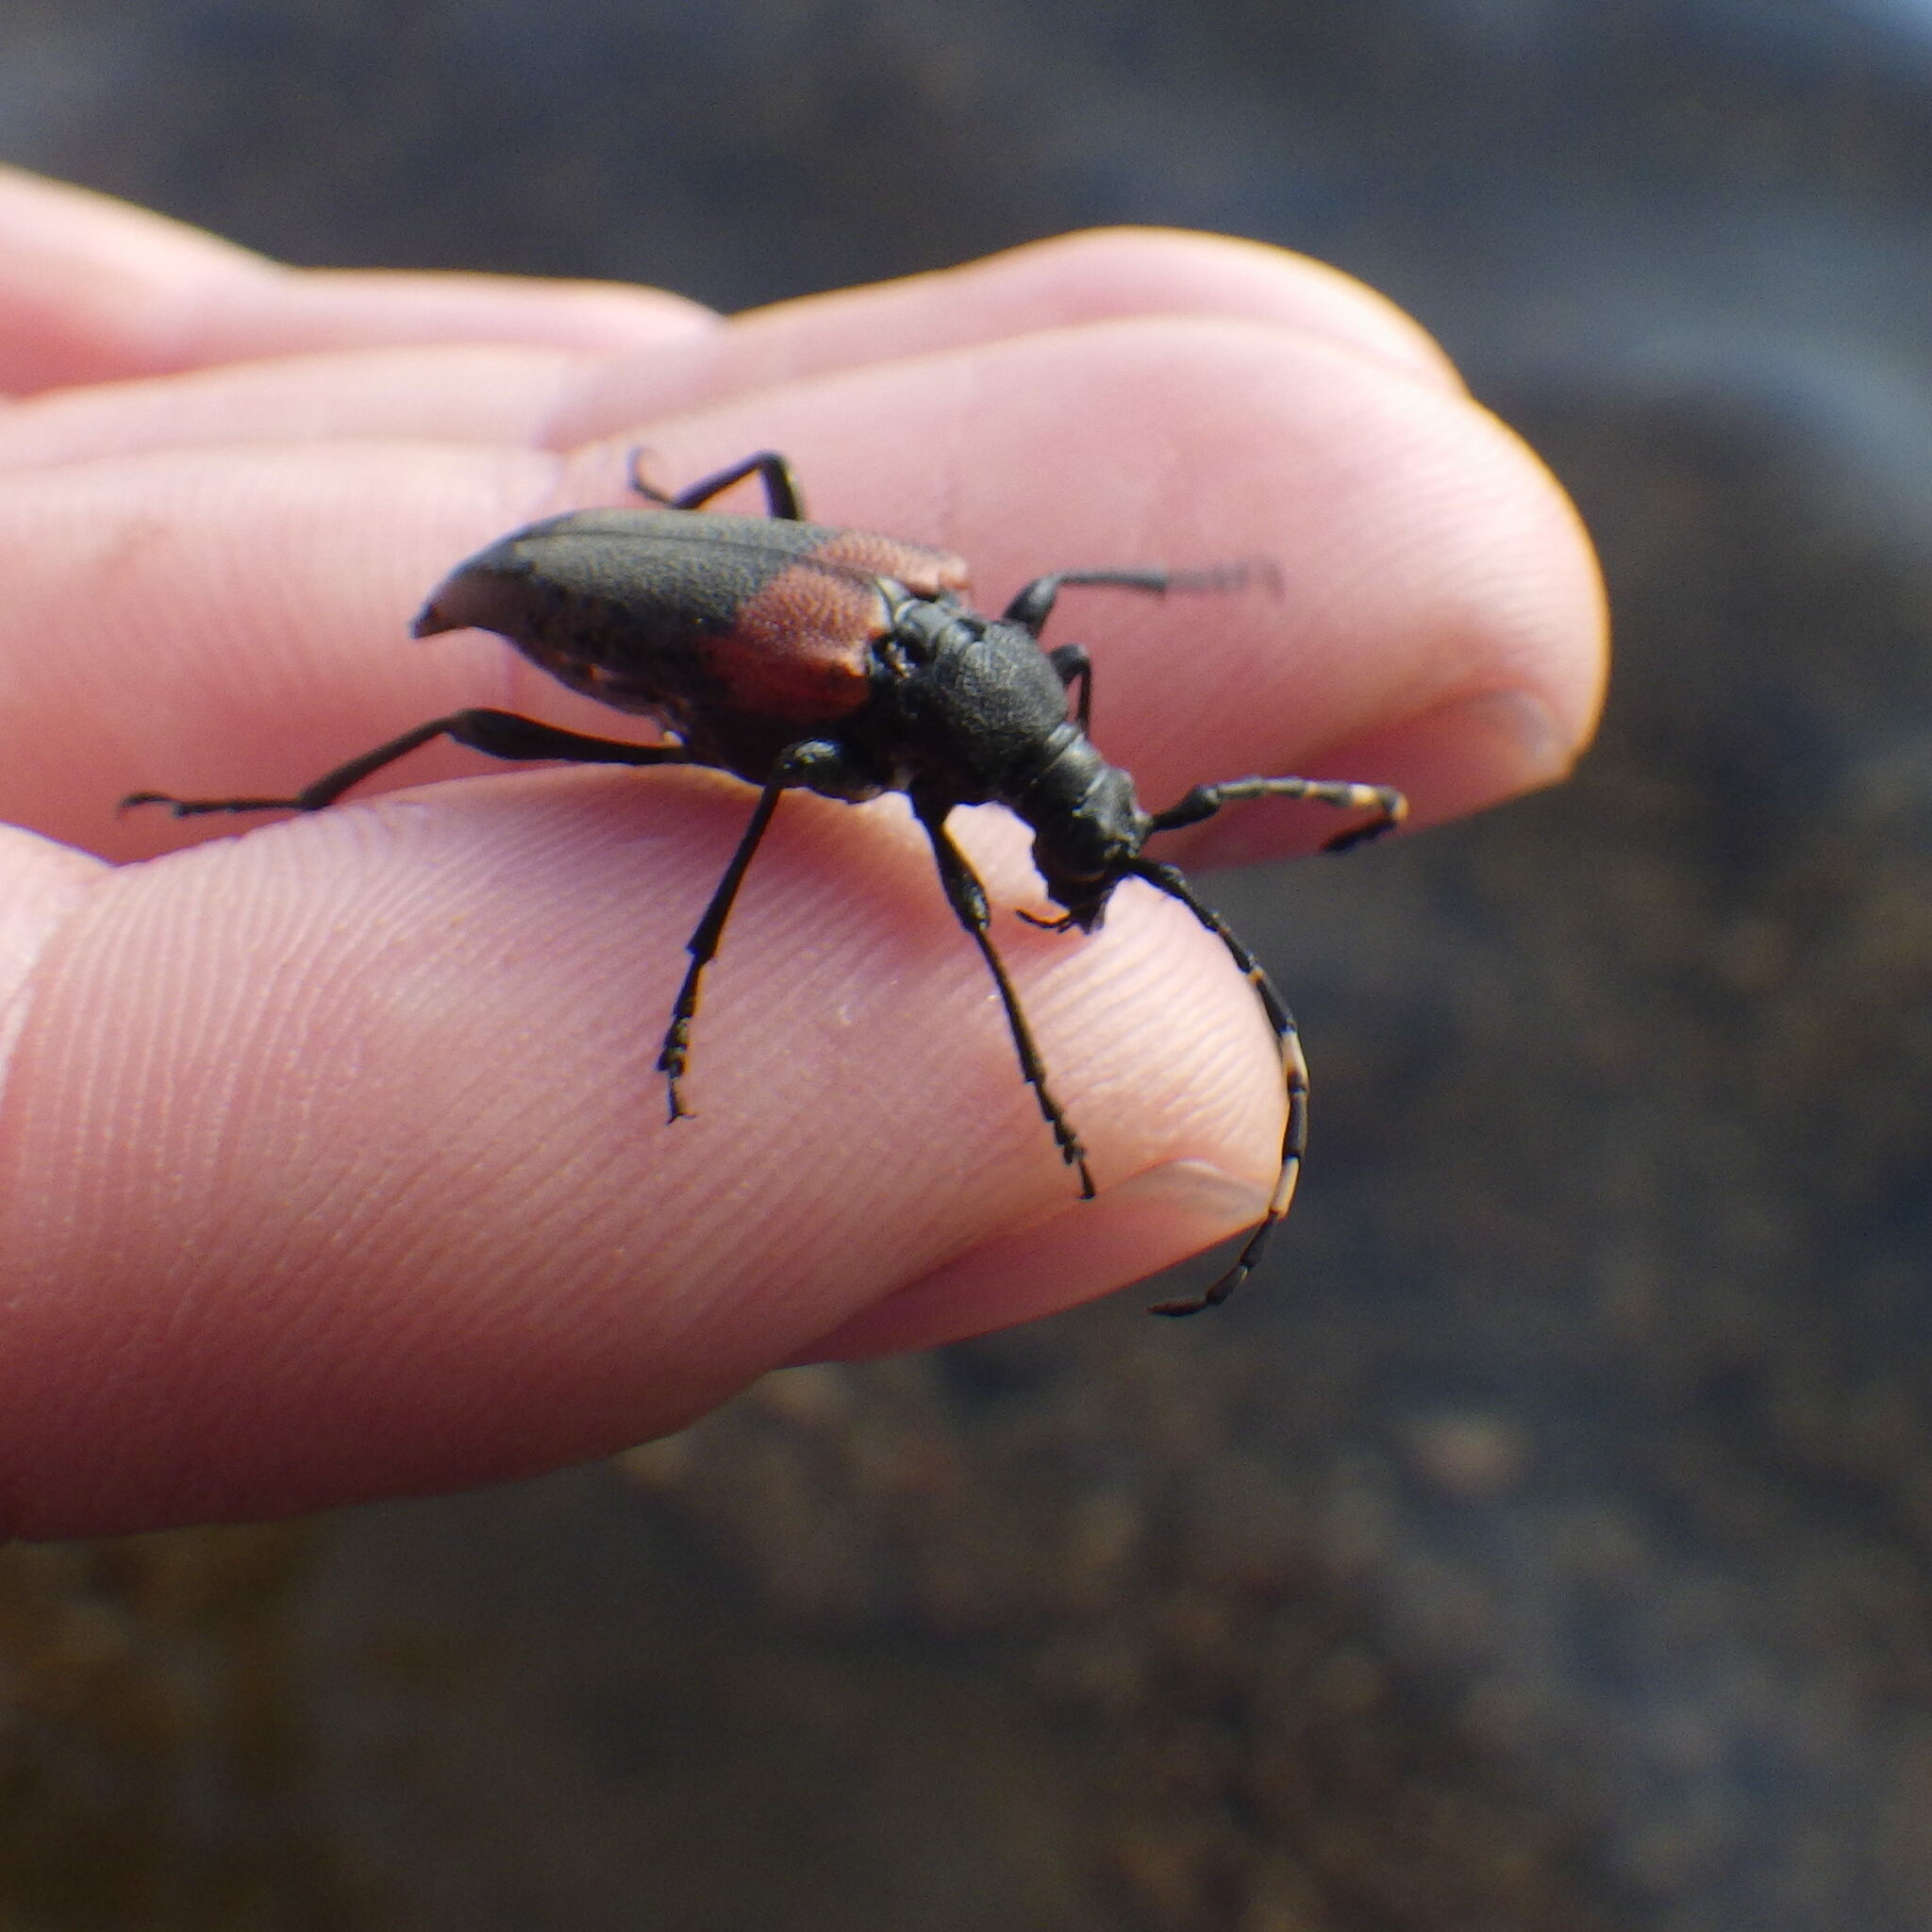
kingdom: Animalia
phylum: Arthropoda
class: Insecta
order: Coleoptera
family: Cerambycidae
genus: Stictoleptura
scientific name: Stictoleptura canadensis
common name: Red-shouldered pine borer
